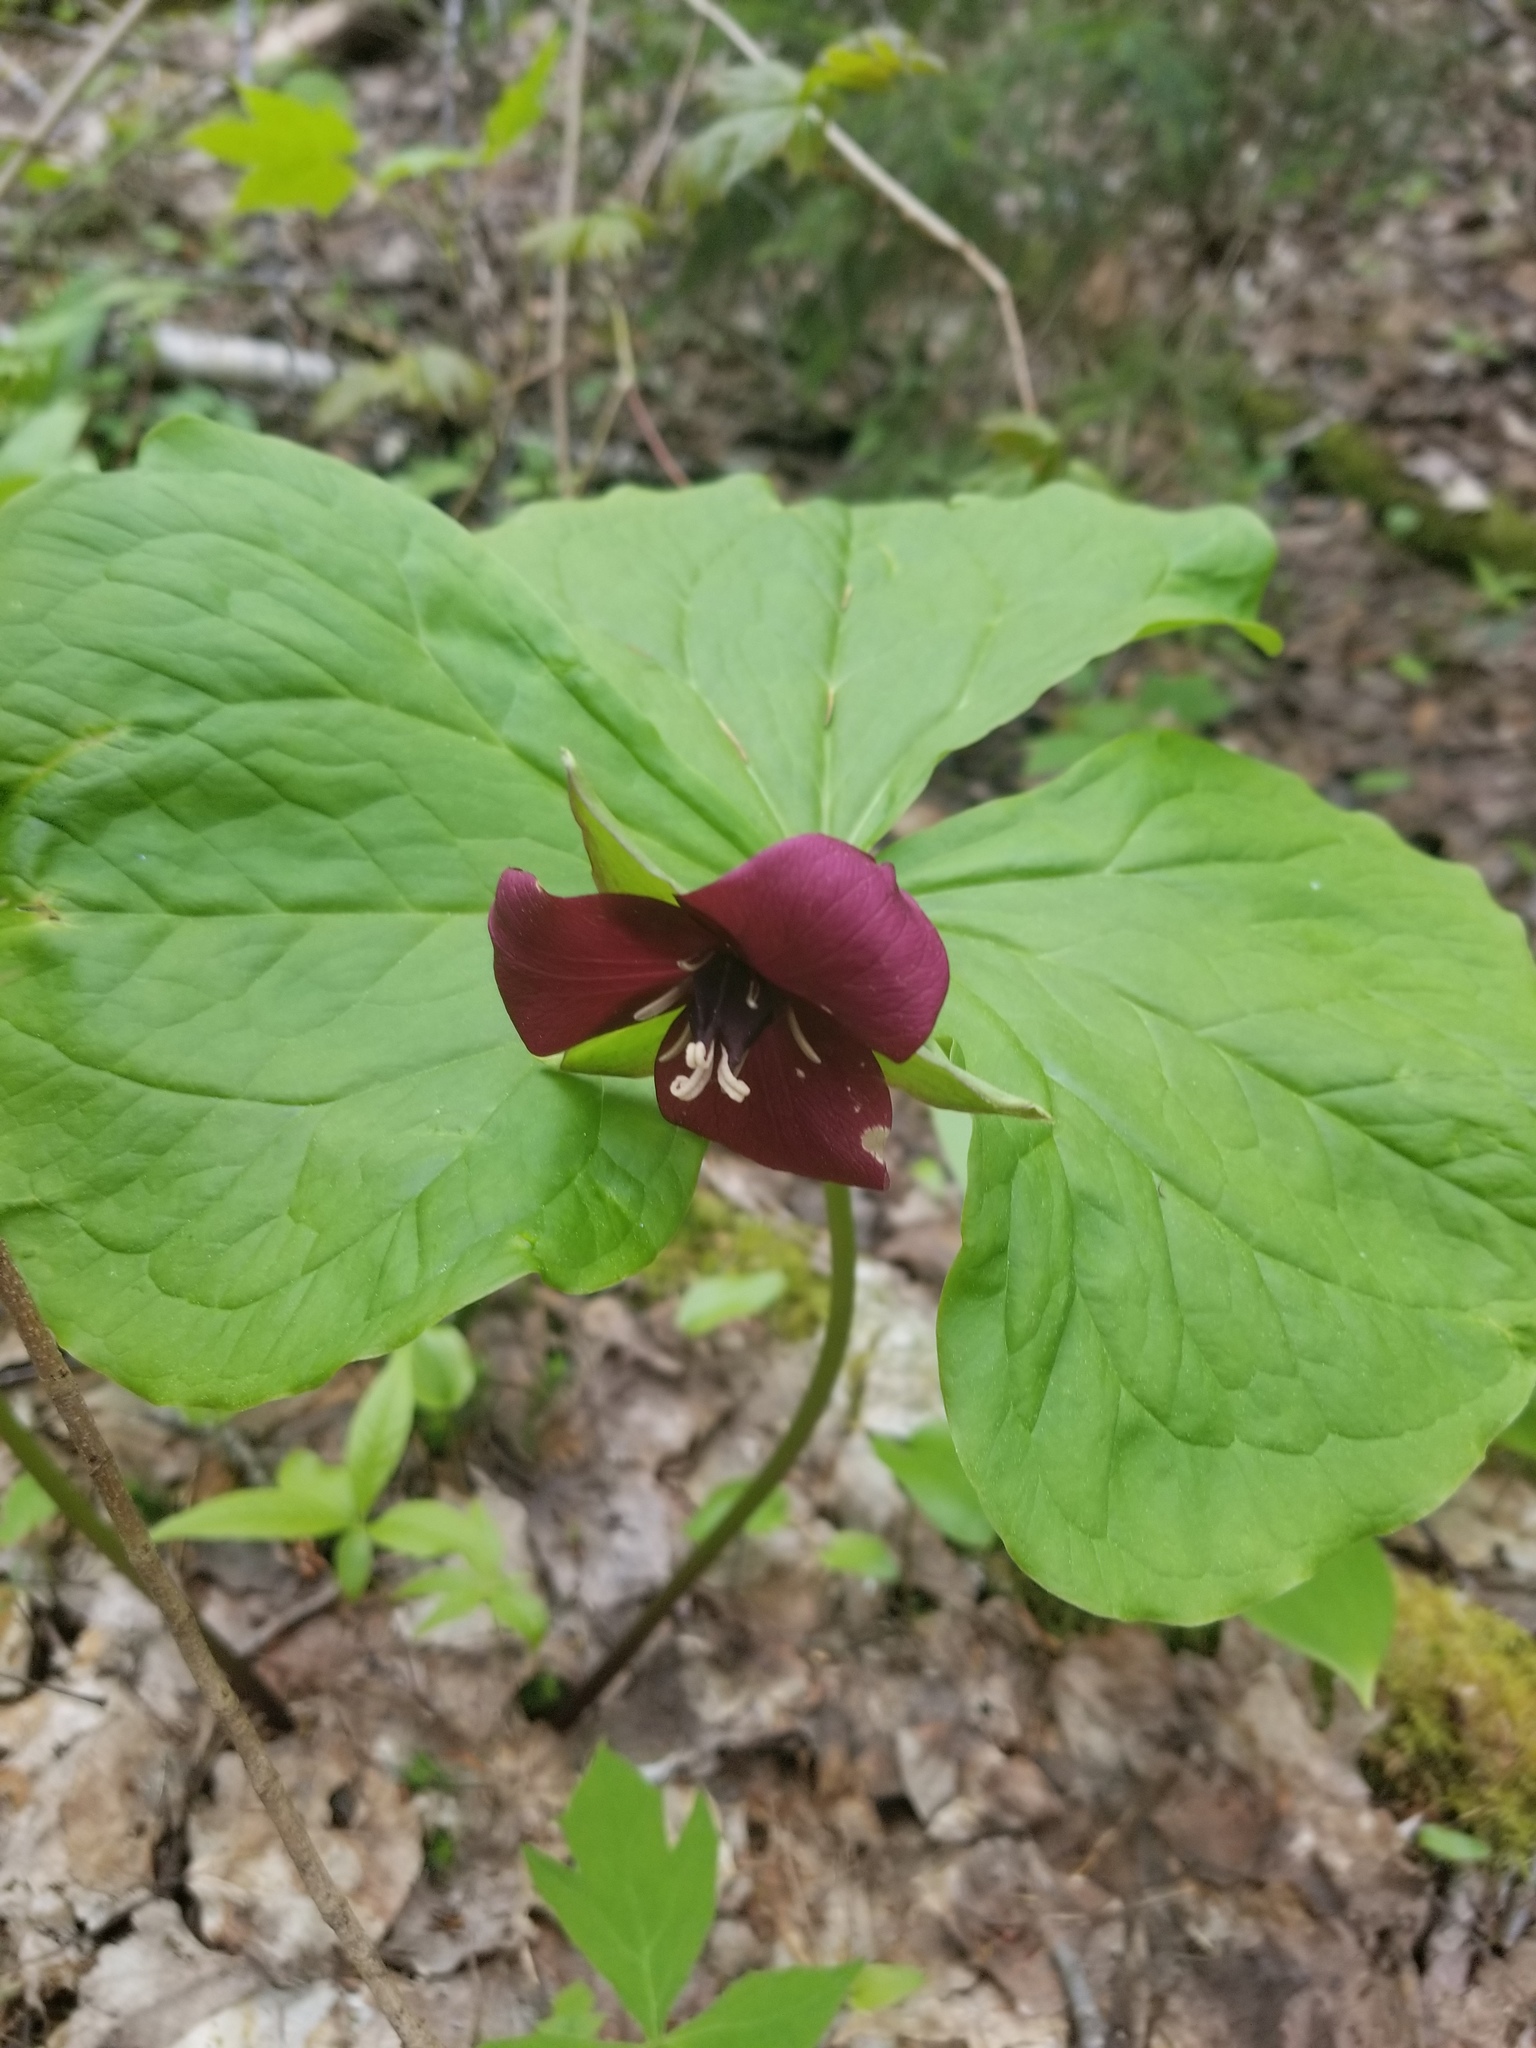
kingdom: Plantae
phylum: Tracheophyta
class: Liliopsida
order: Liliales
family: Melanthiaceae
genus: Trillium
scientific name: Trillium erectum
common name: Purple trillium
